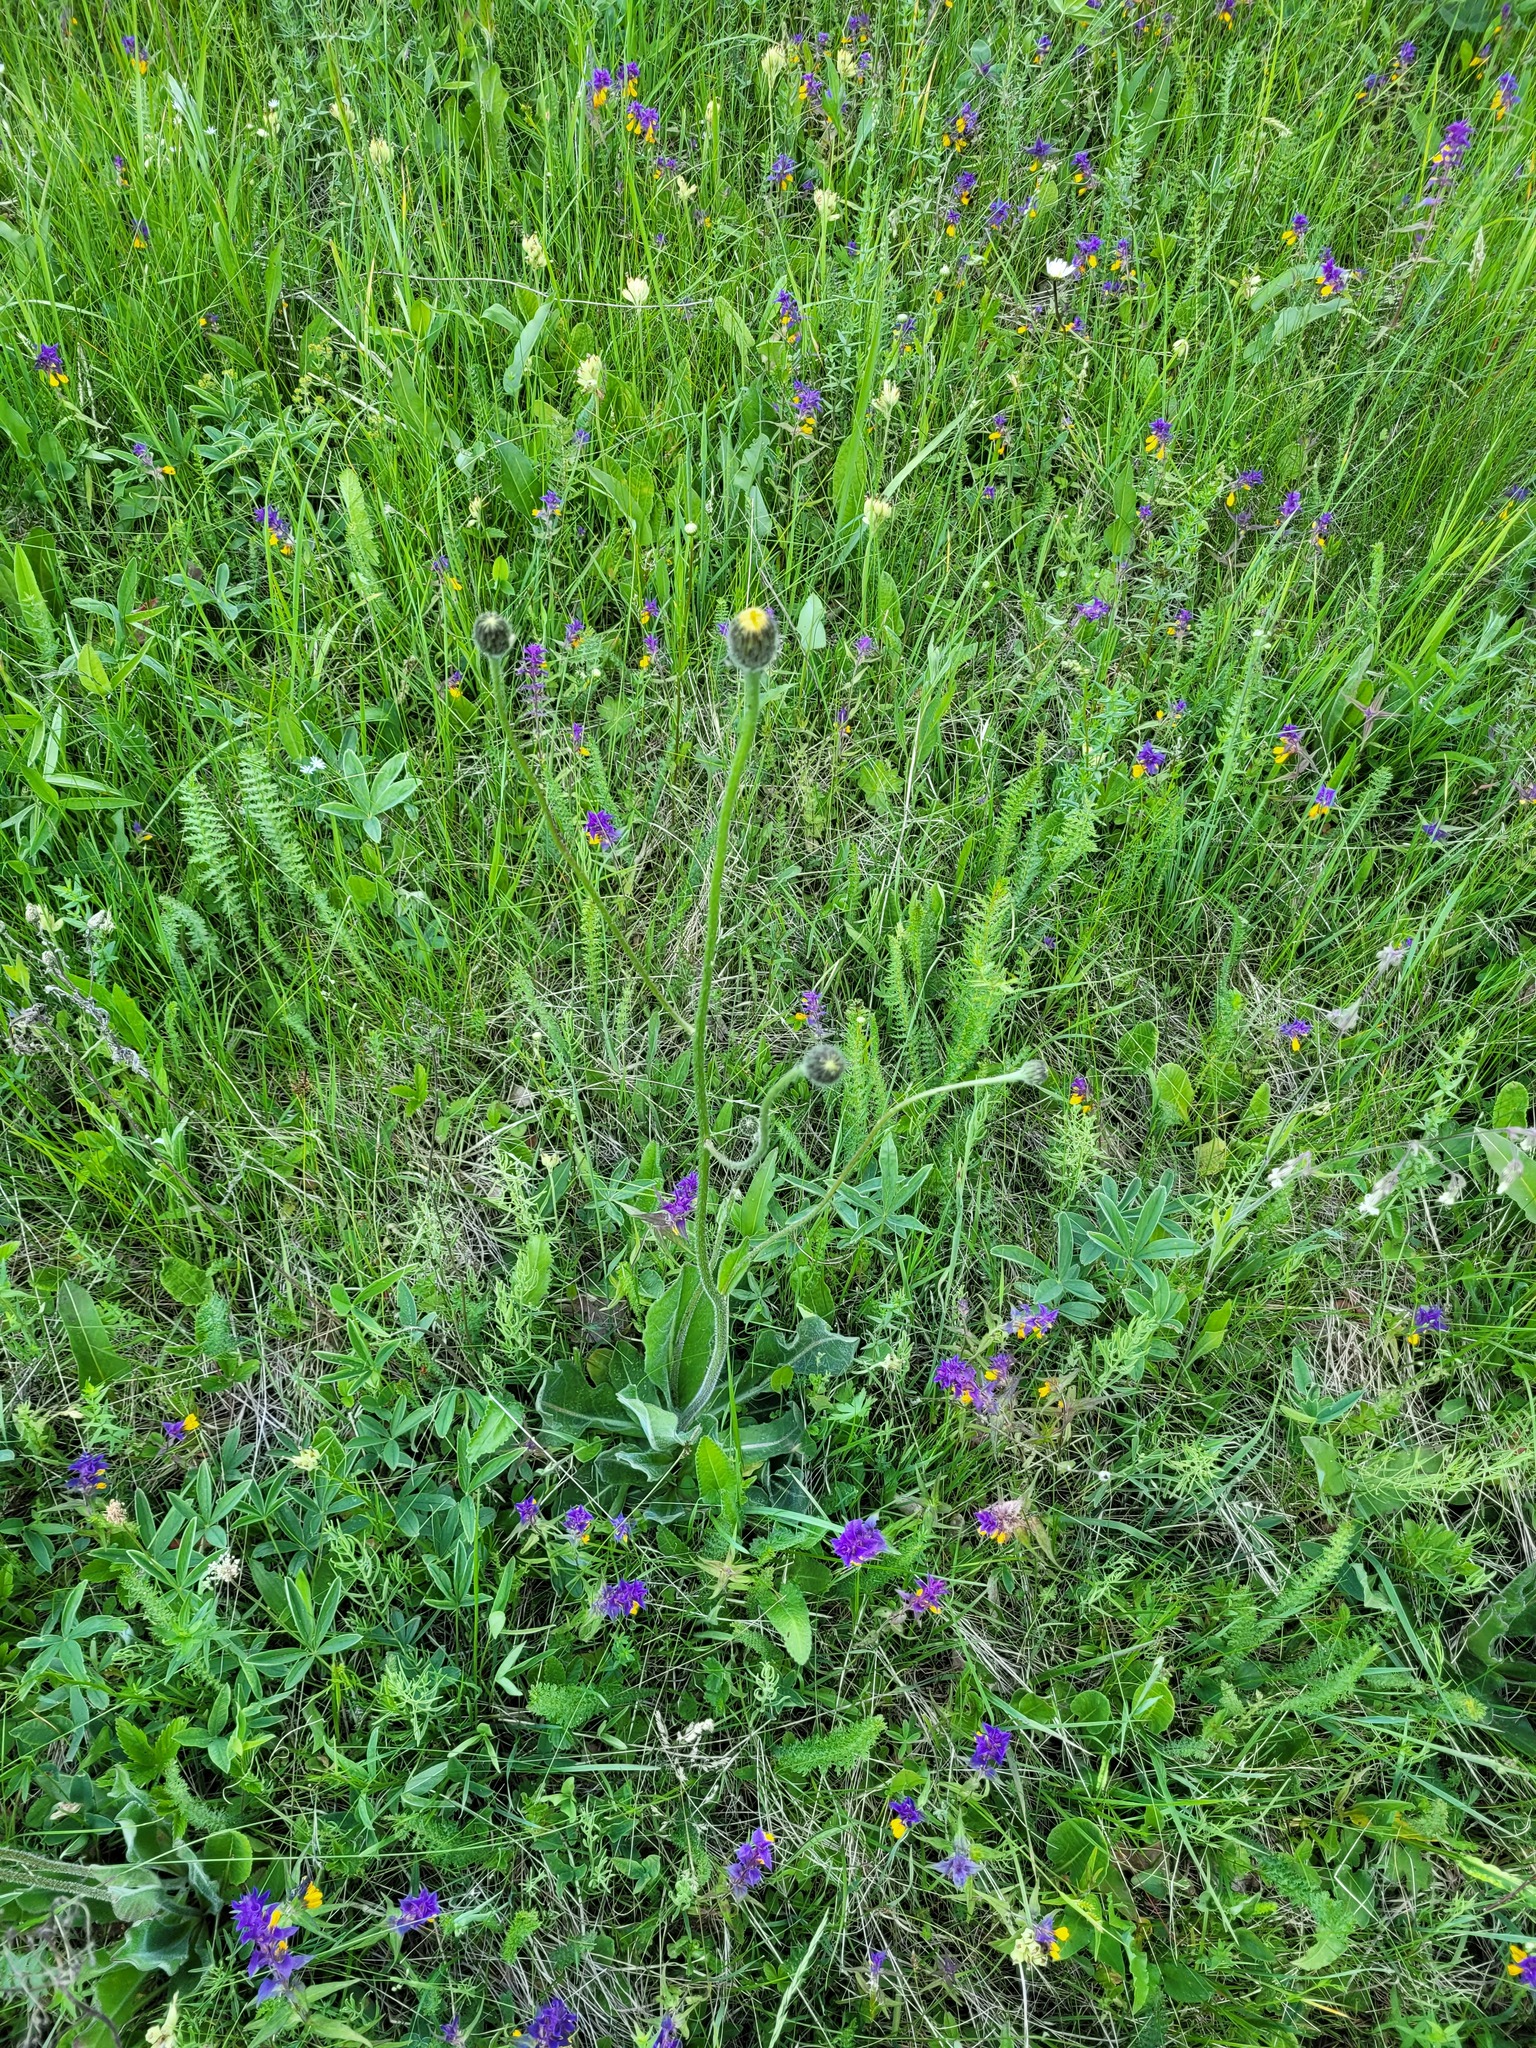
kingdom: Plantae
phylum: Tracheophyta
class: Magnoliopsida
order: Asterales
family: Asteraceae
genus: Trommsdorffia
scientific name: Trommsdorffia maculata
